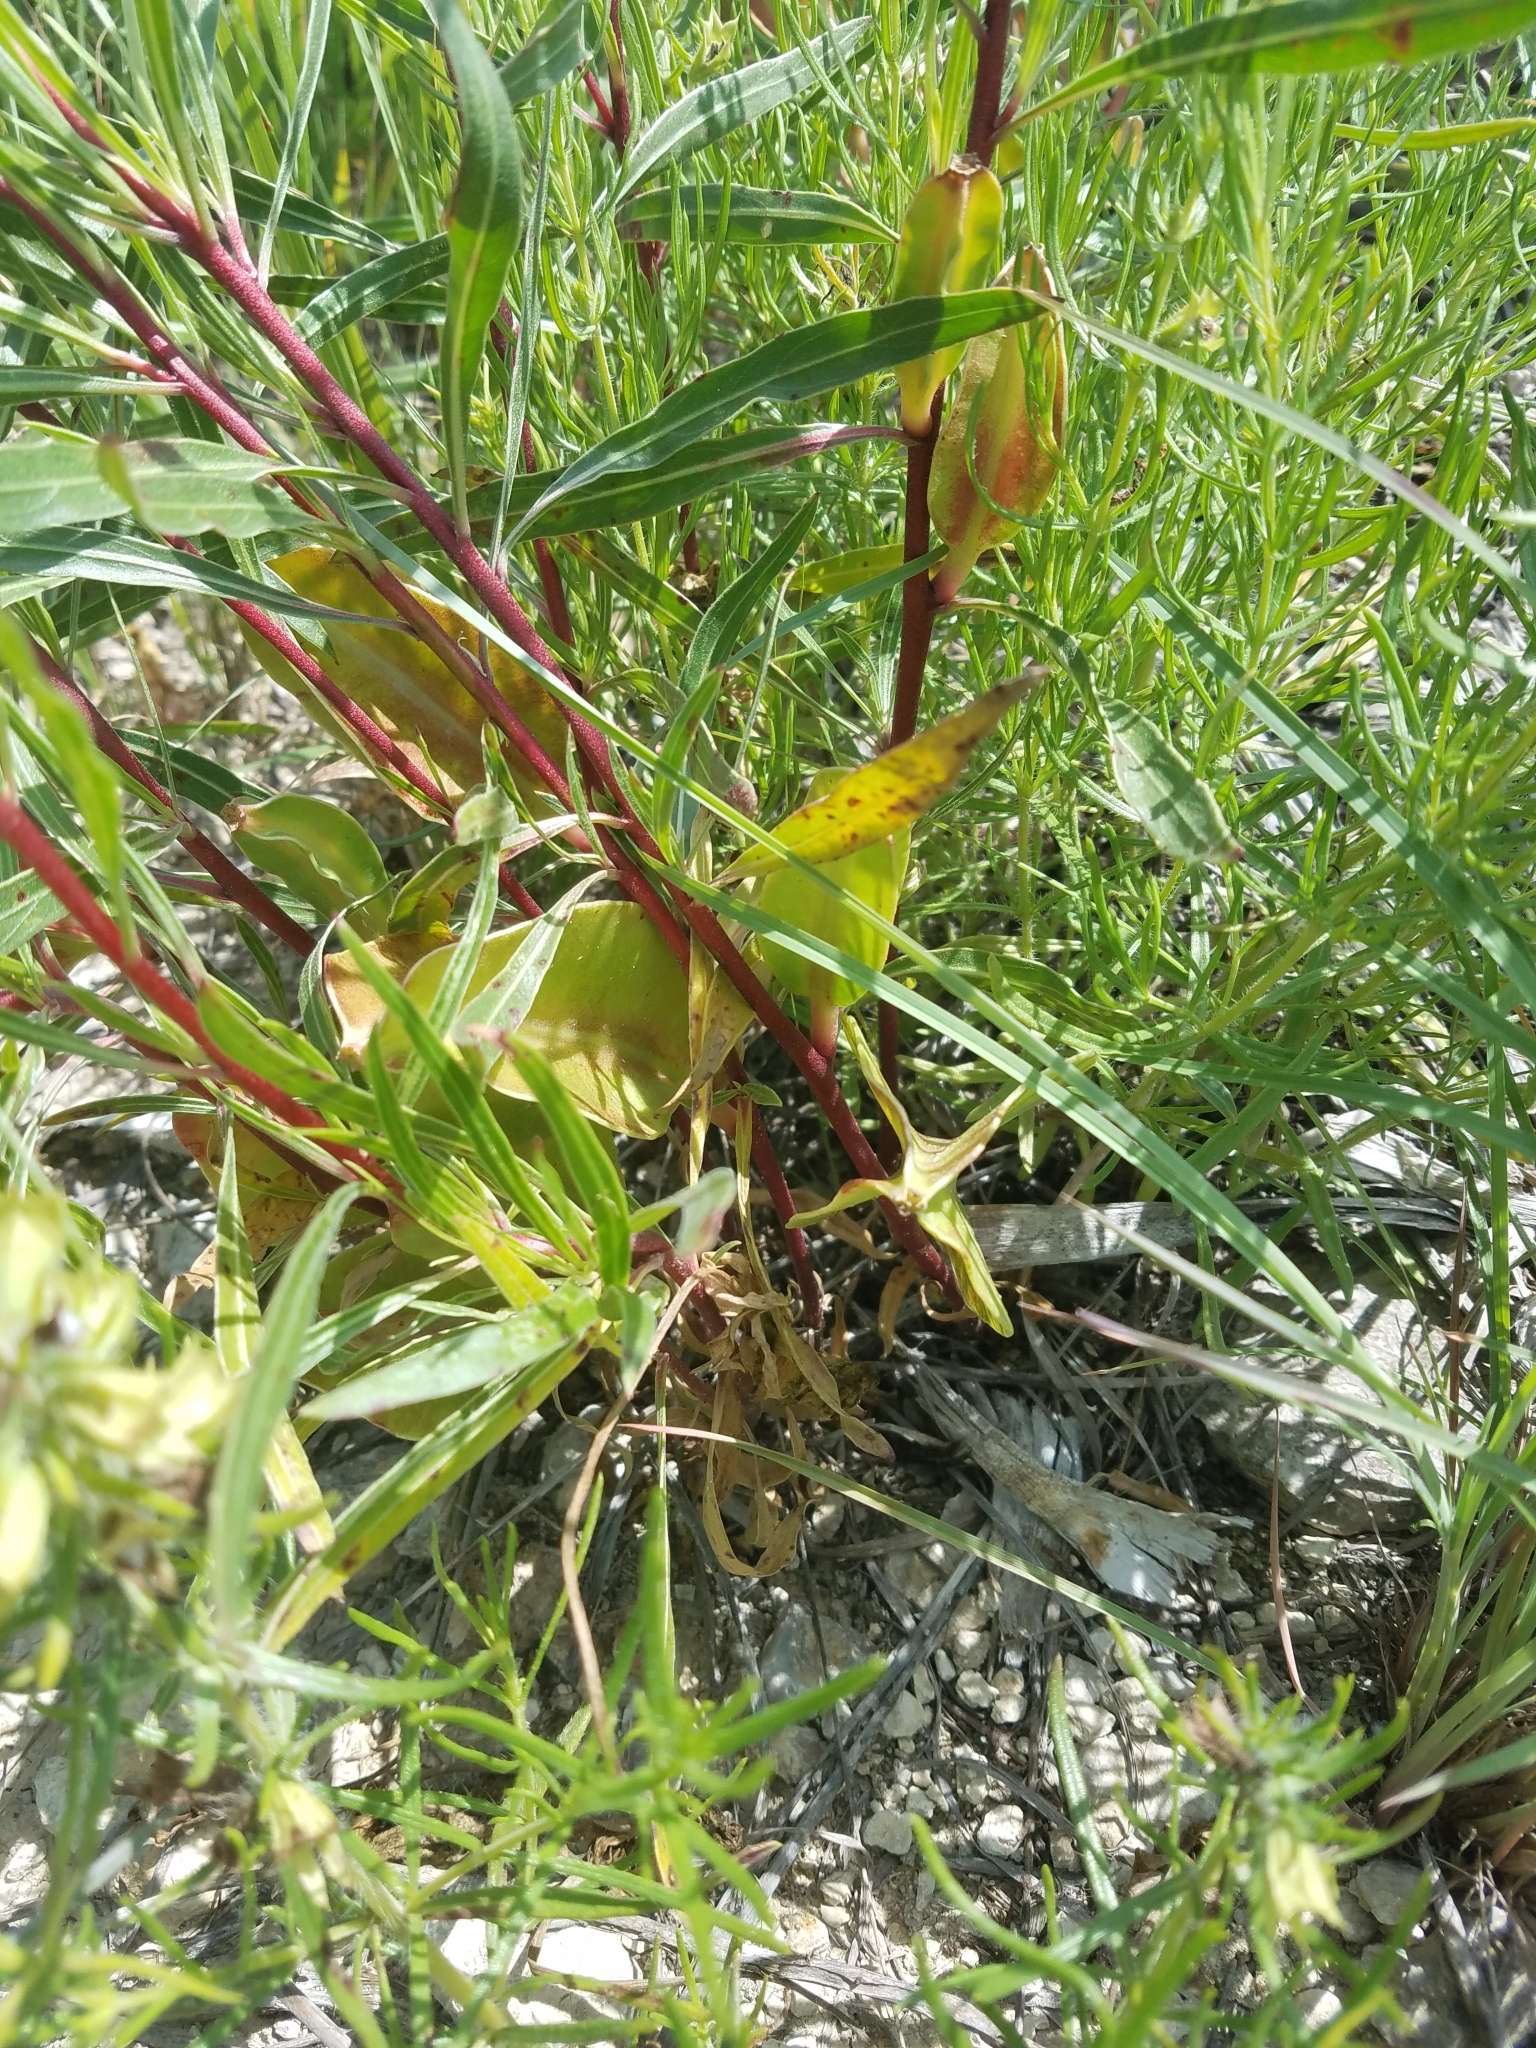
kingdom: Plantae
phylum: Tracheophyta
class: Magnoliopsida
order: Myrtales
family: Onagraceae
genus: Oenothera
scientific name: Oenothera macrocarpa
